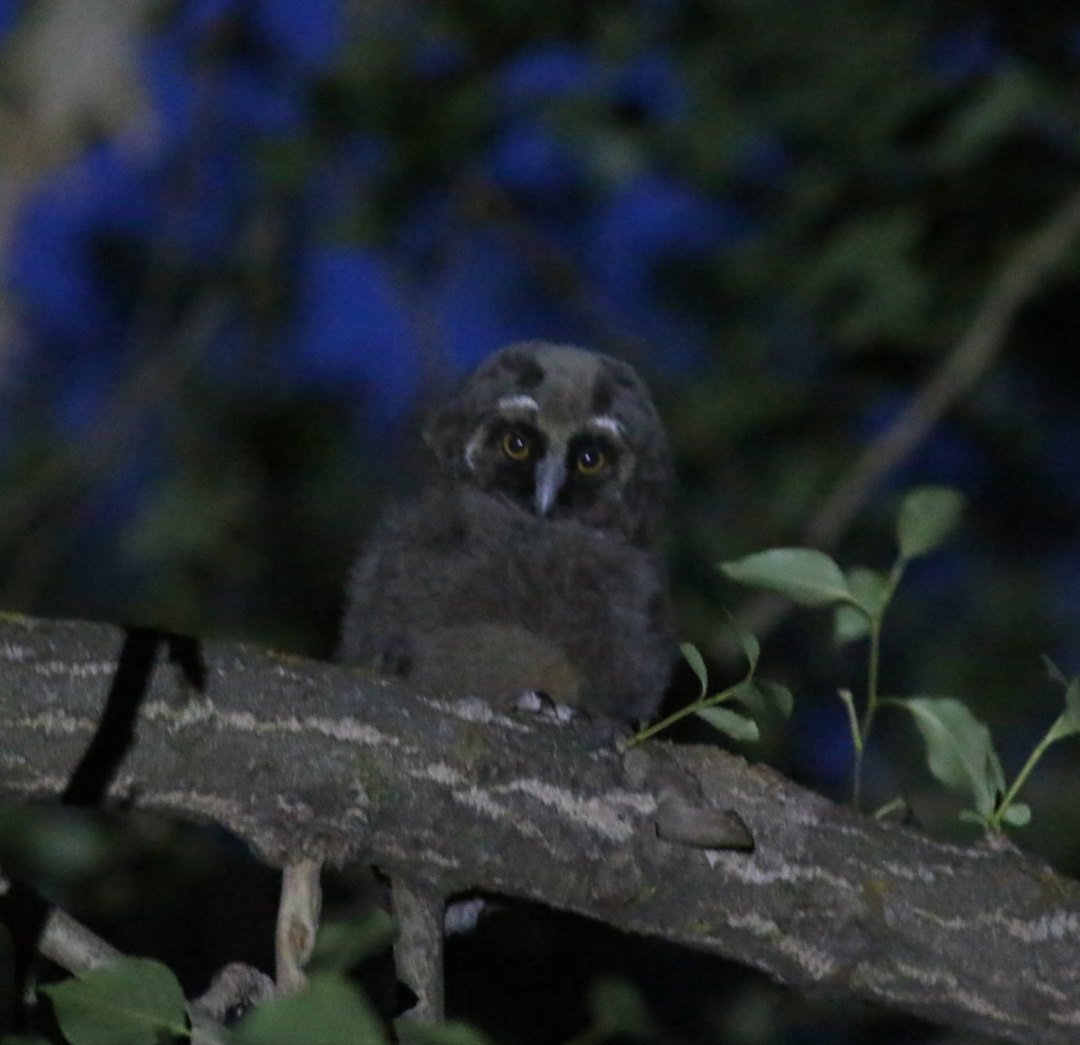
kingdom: Animalia
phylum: Chordata
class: Aves
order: Strigiformes
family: Strigidae
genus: Asio
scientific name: Asio otus
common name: Long-eared owl
